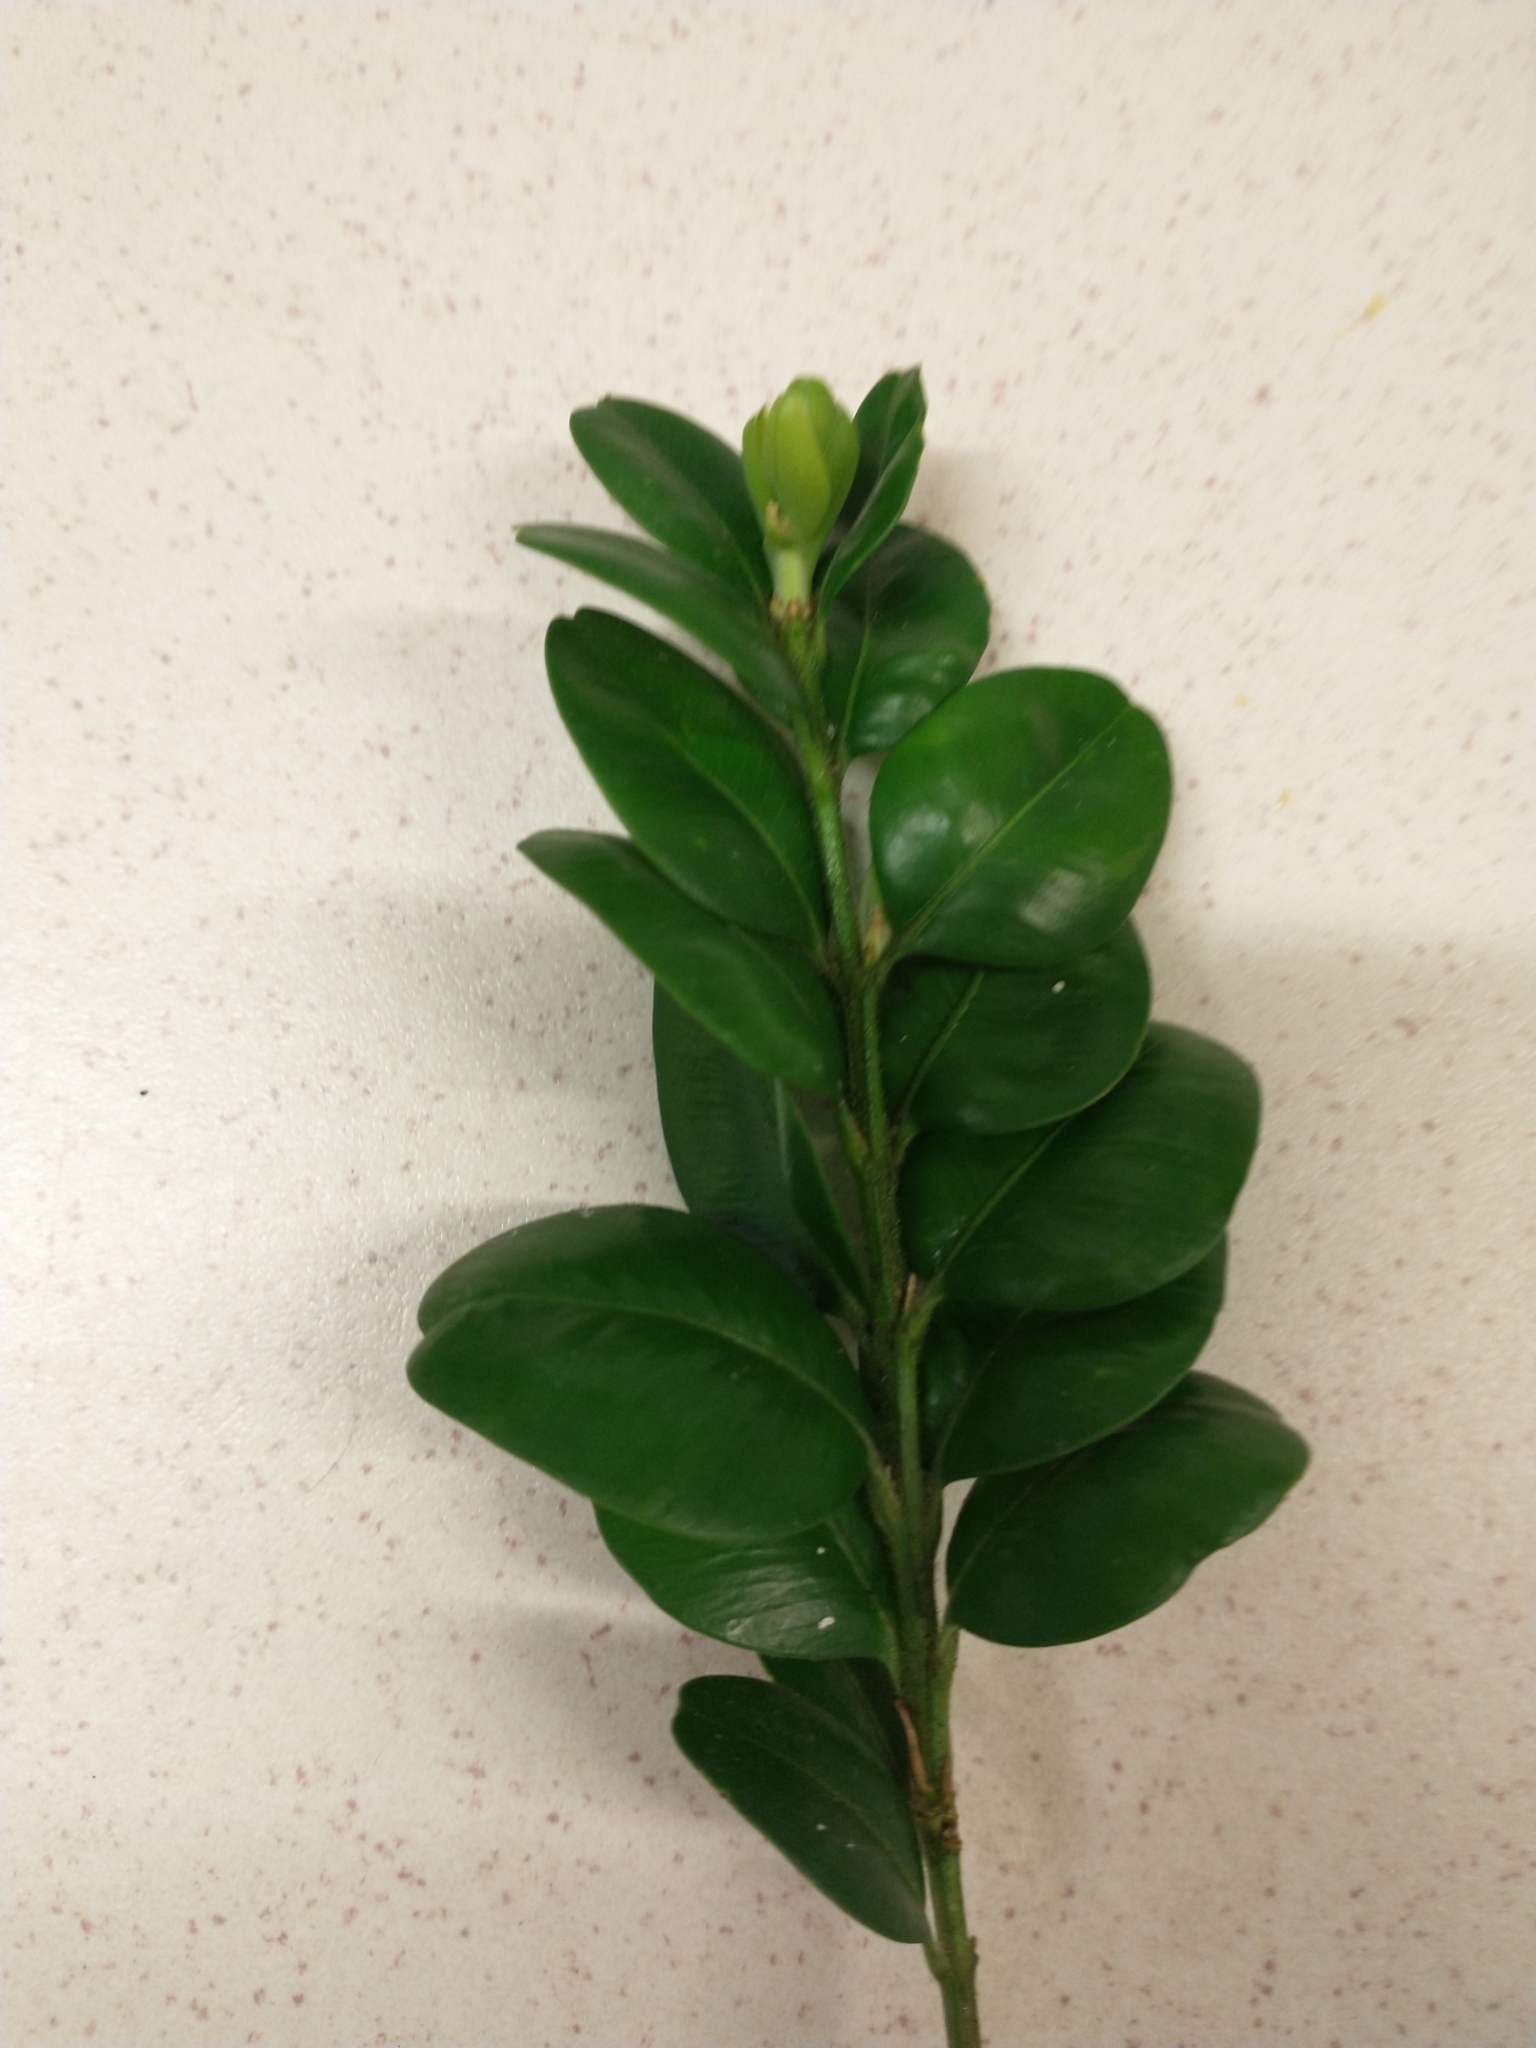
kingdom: Plantae
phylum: Tracheophyta
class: Magnoliopsida
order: Buxales
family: Buxaceae
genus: Buxus
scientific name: Buxus sempervirens
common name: Box
